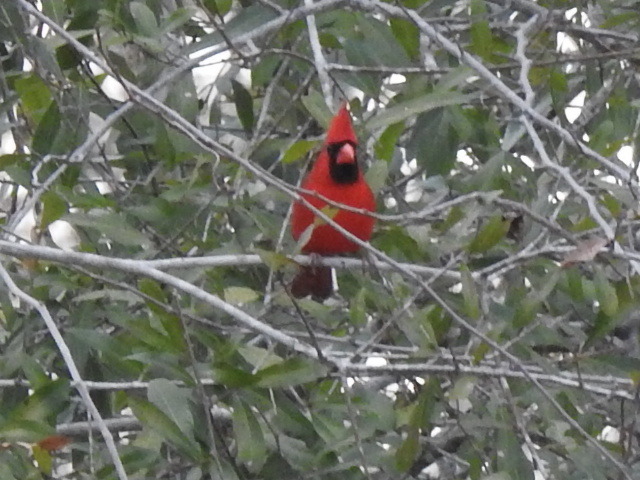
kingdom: Animalia
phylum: Chordata
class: Aves
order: Passeriformes
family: Cardinalidae
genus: Cardinalis
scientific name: Cardinalis cardinalis
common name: Northern cardinal
